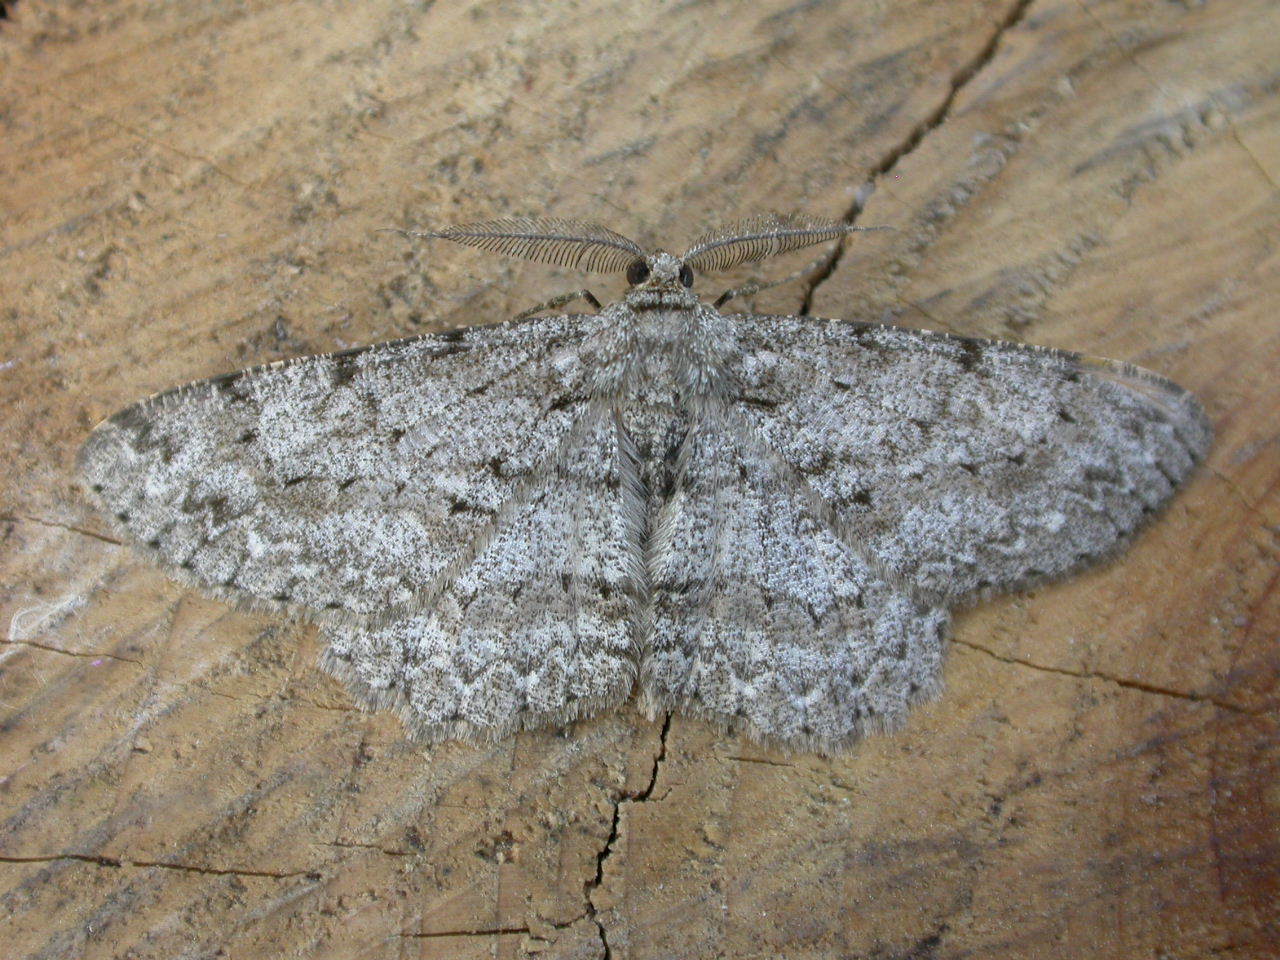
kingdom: Animalia
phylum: Arthropoda
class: Insecta
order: Lepidoptera
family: Geometridae
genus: Hypomecis
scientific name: Hypomecis punctinalis
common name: Pale oak beauty
